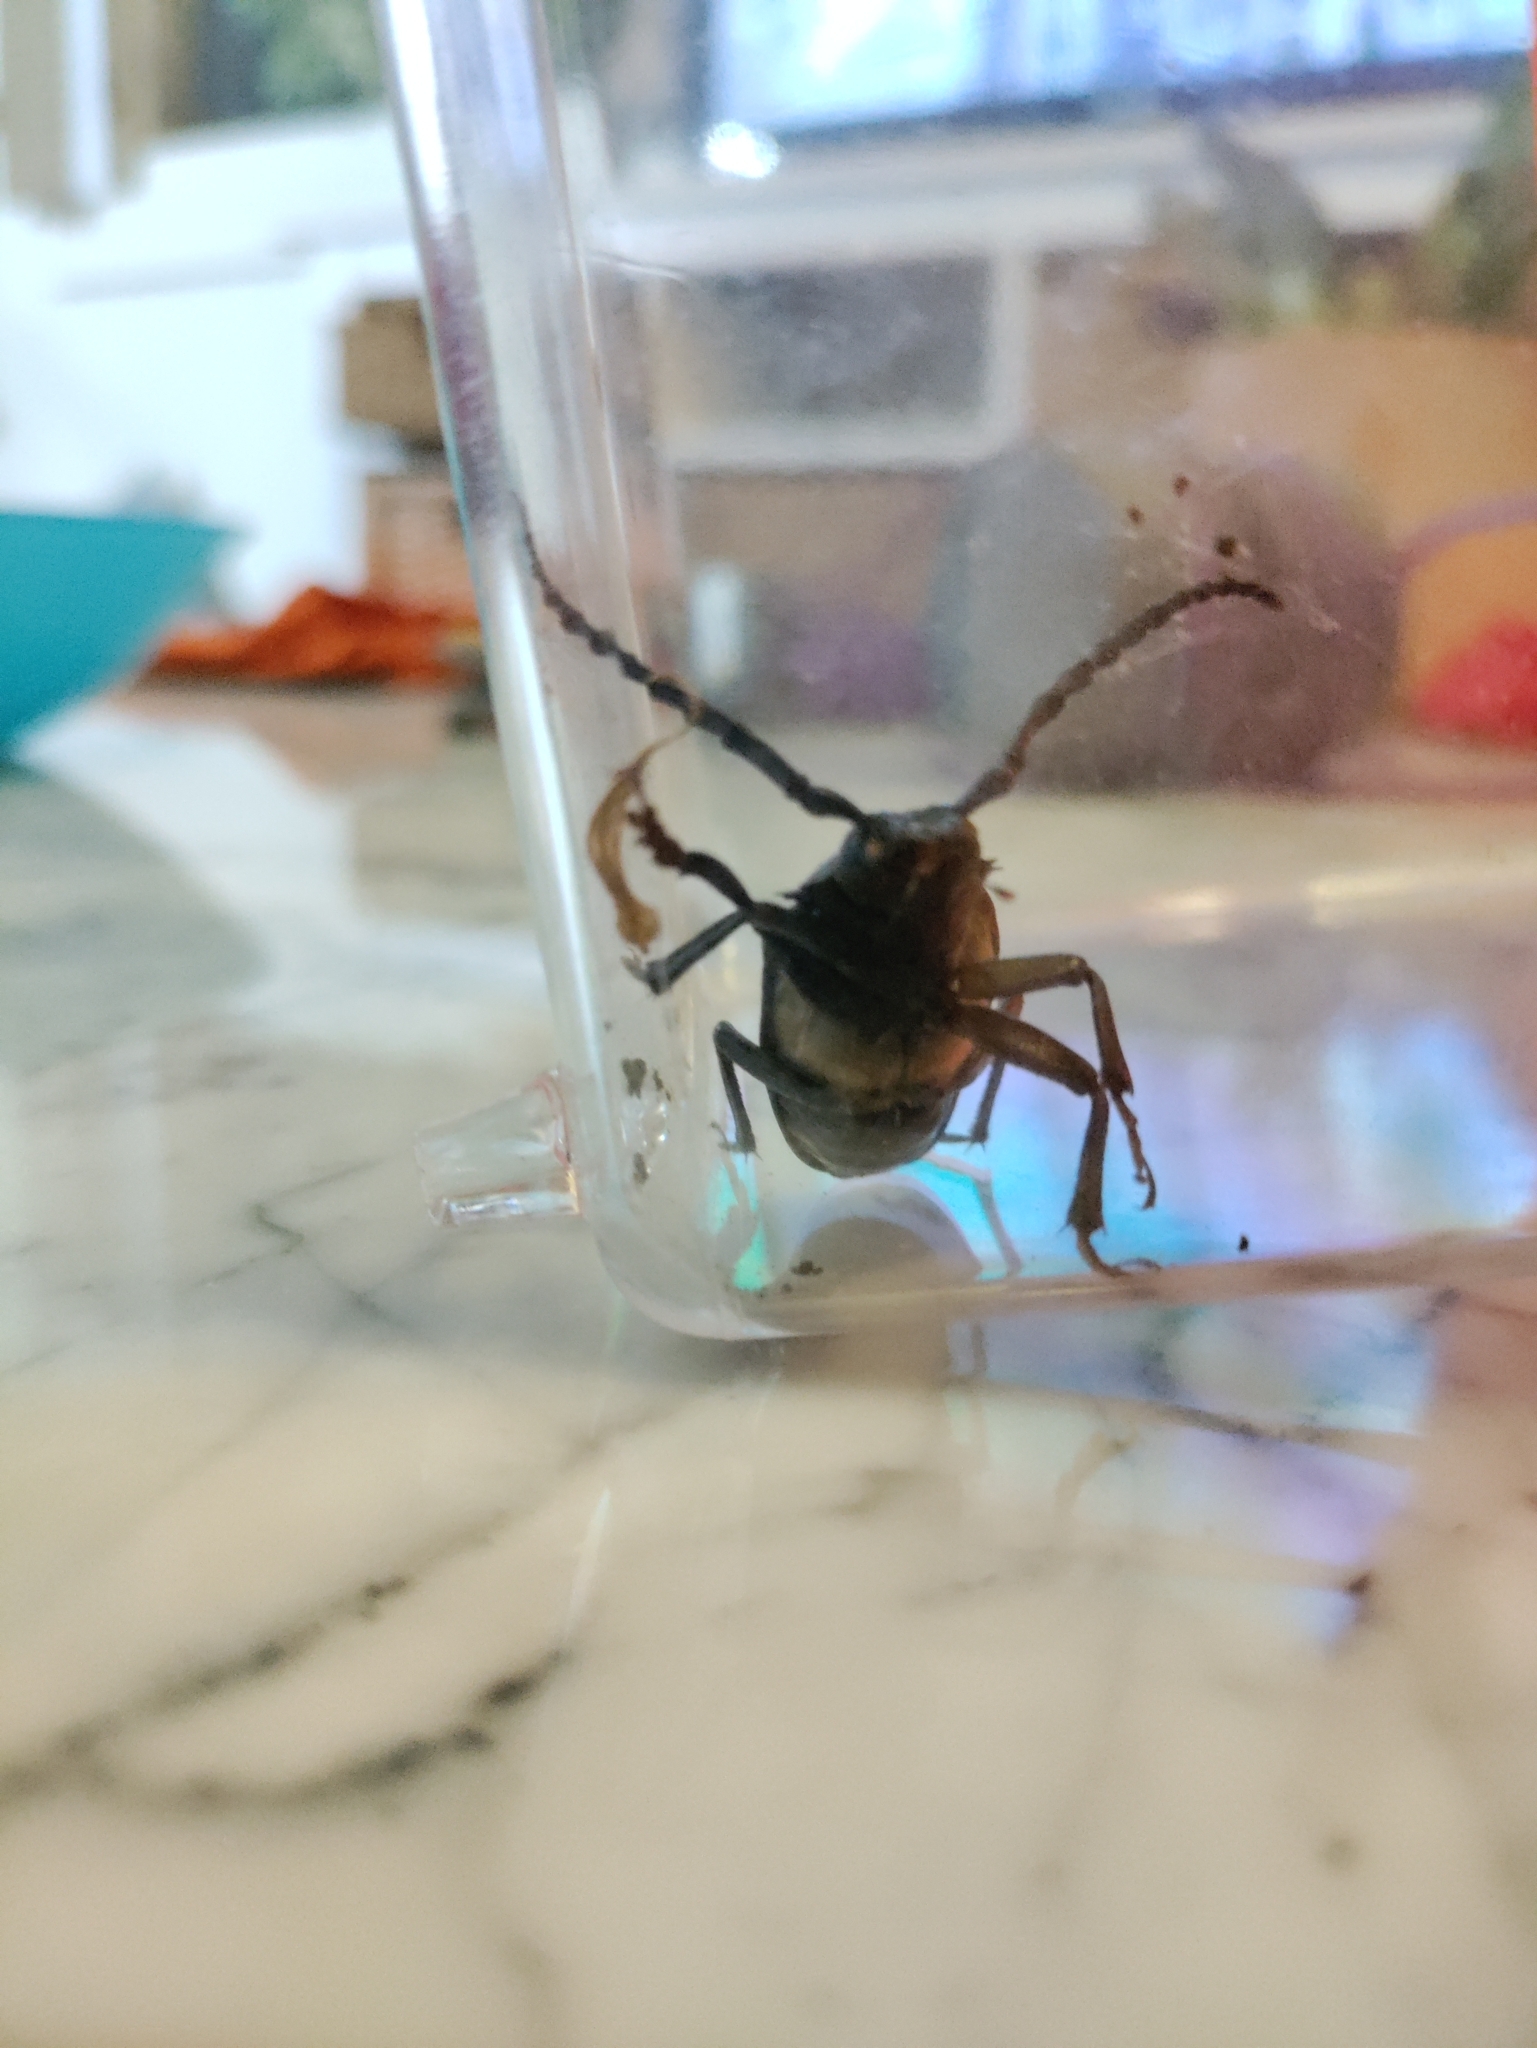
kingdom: Animalia
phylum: Arthropoda
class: Insecta
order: Coleoptera
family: Cerambycidae
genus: Prionus
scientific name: Prionus laticollis
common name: Broad necked prionus
